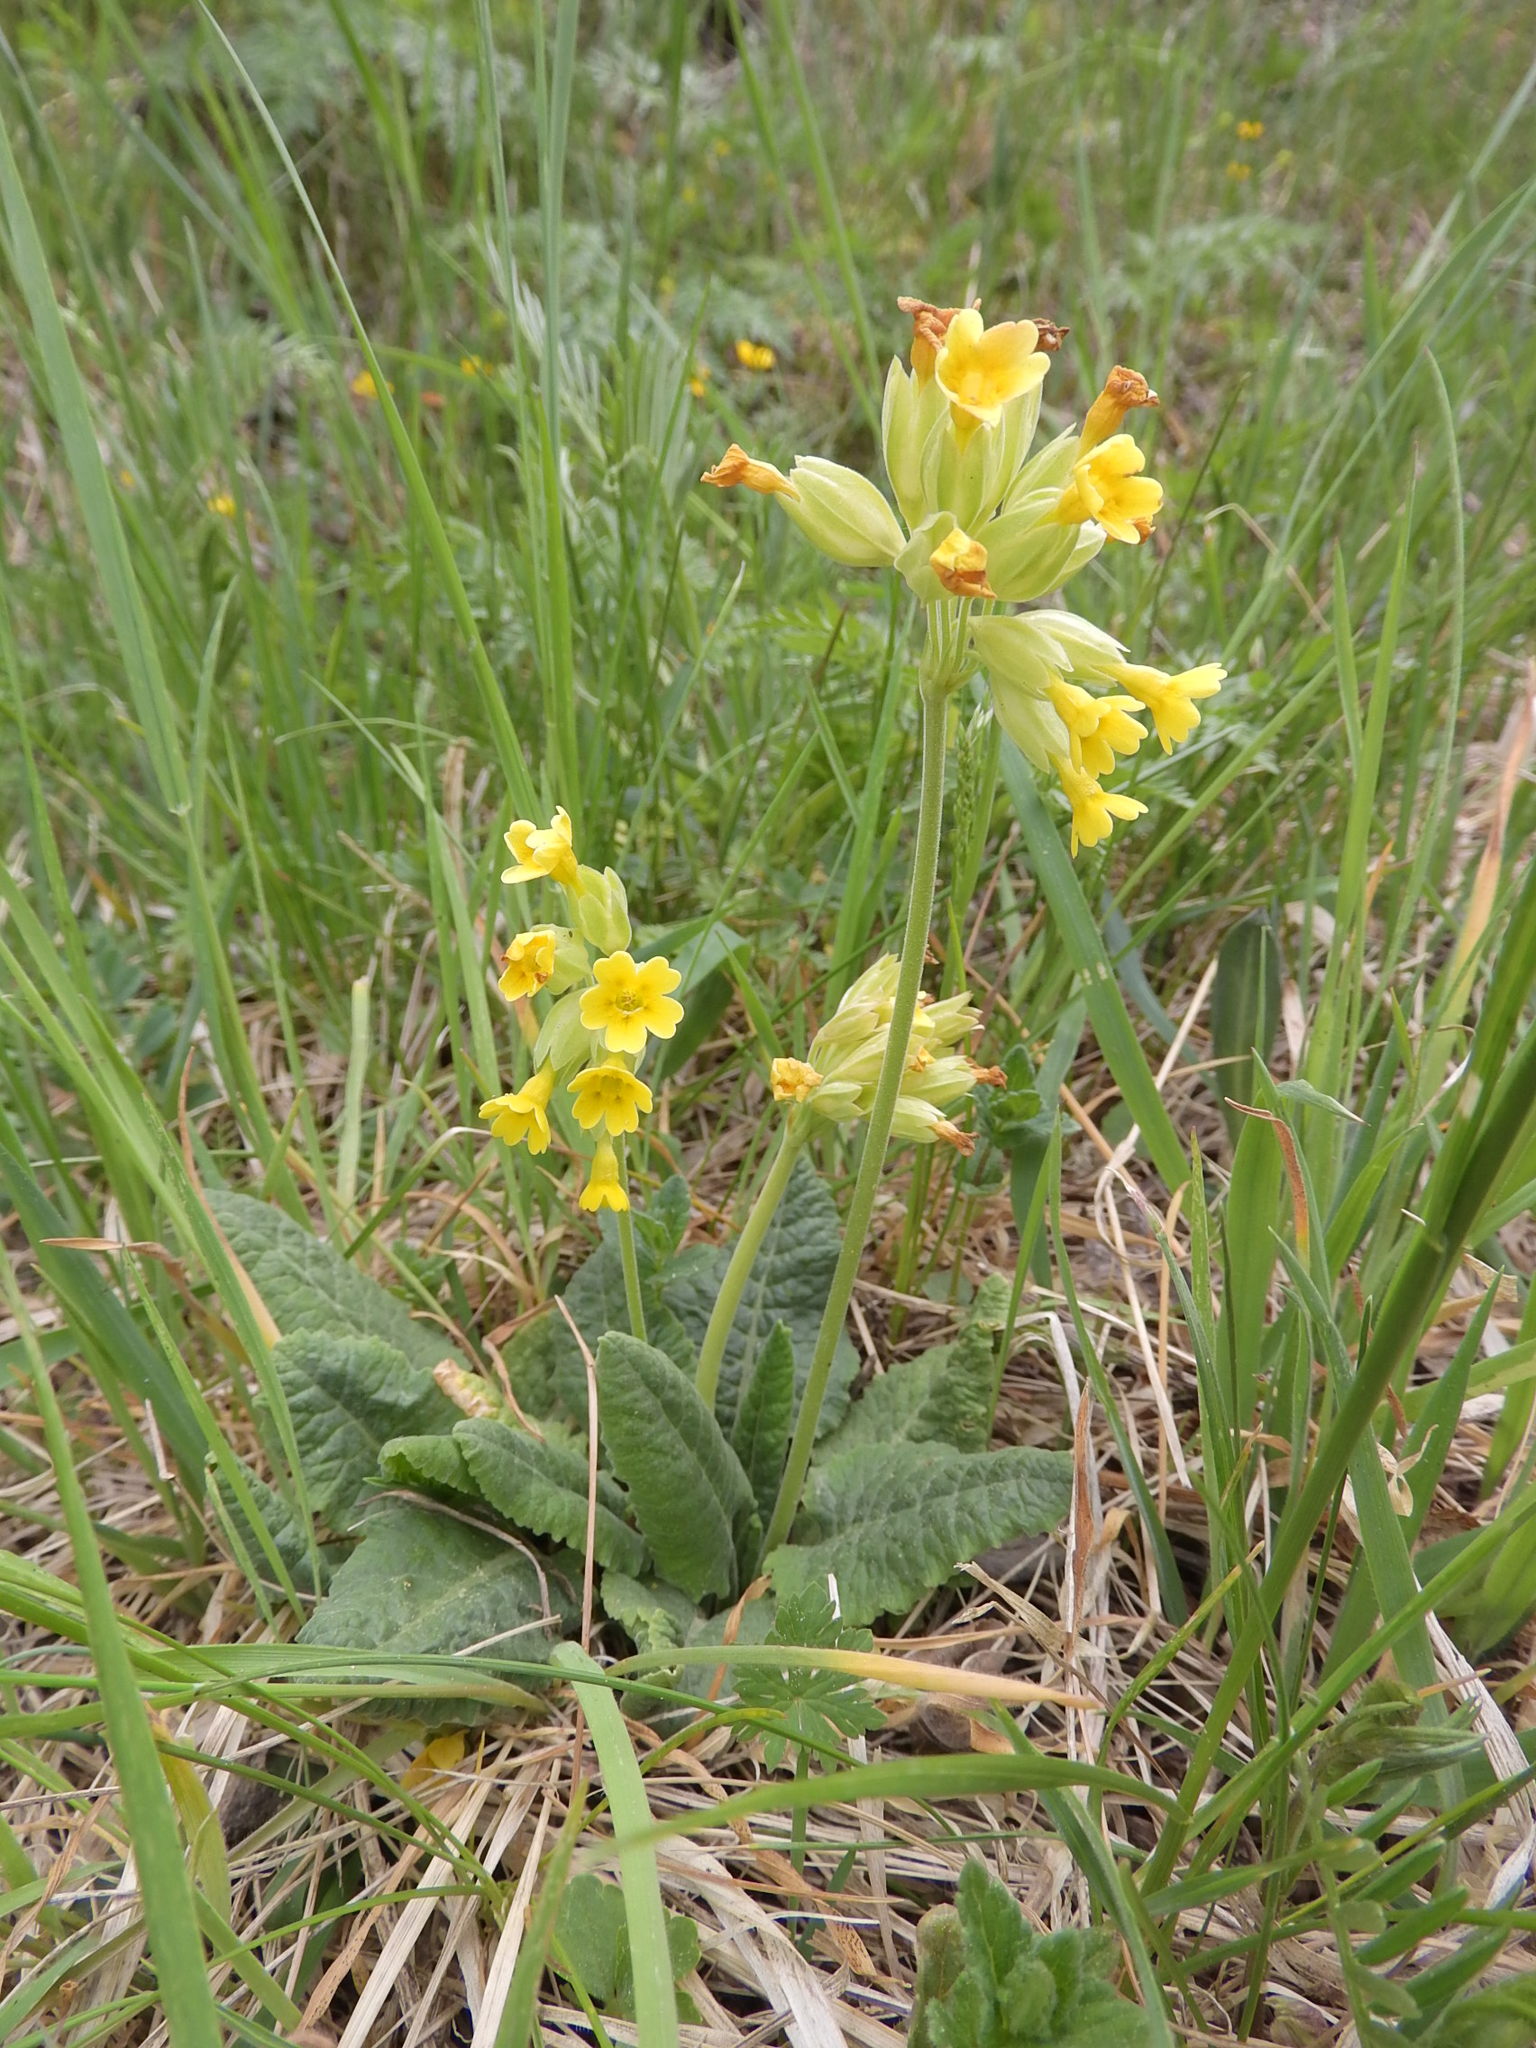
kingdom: Plantae
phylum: Tracheophyta
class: Magnoliopsida
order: Ericales
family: Primulaceae
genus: Primula
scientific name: Primula veris
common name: Cowslip
